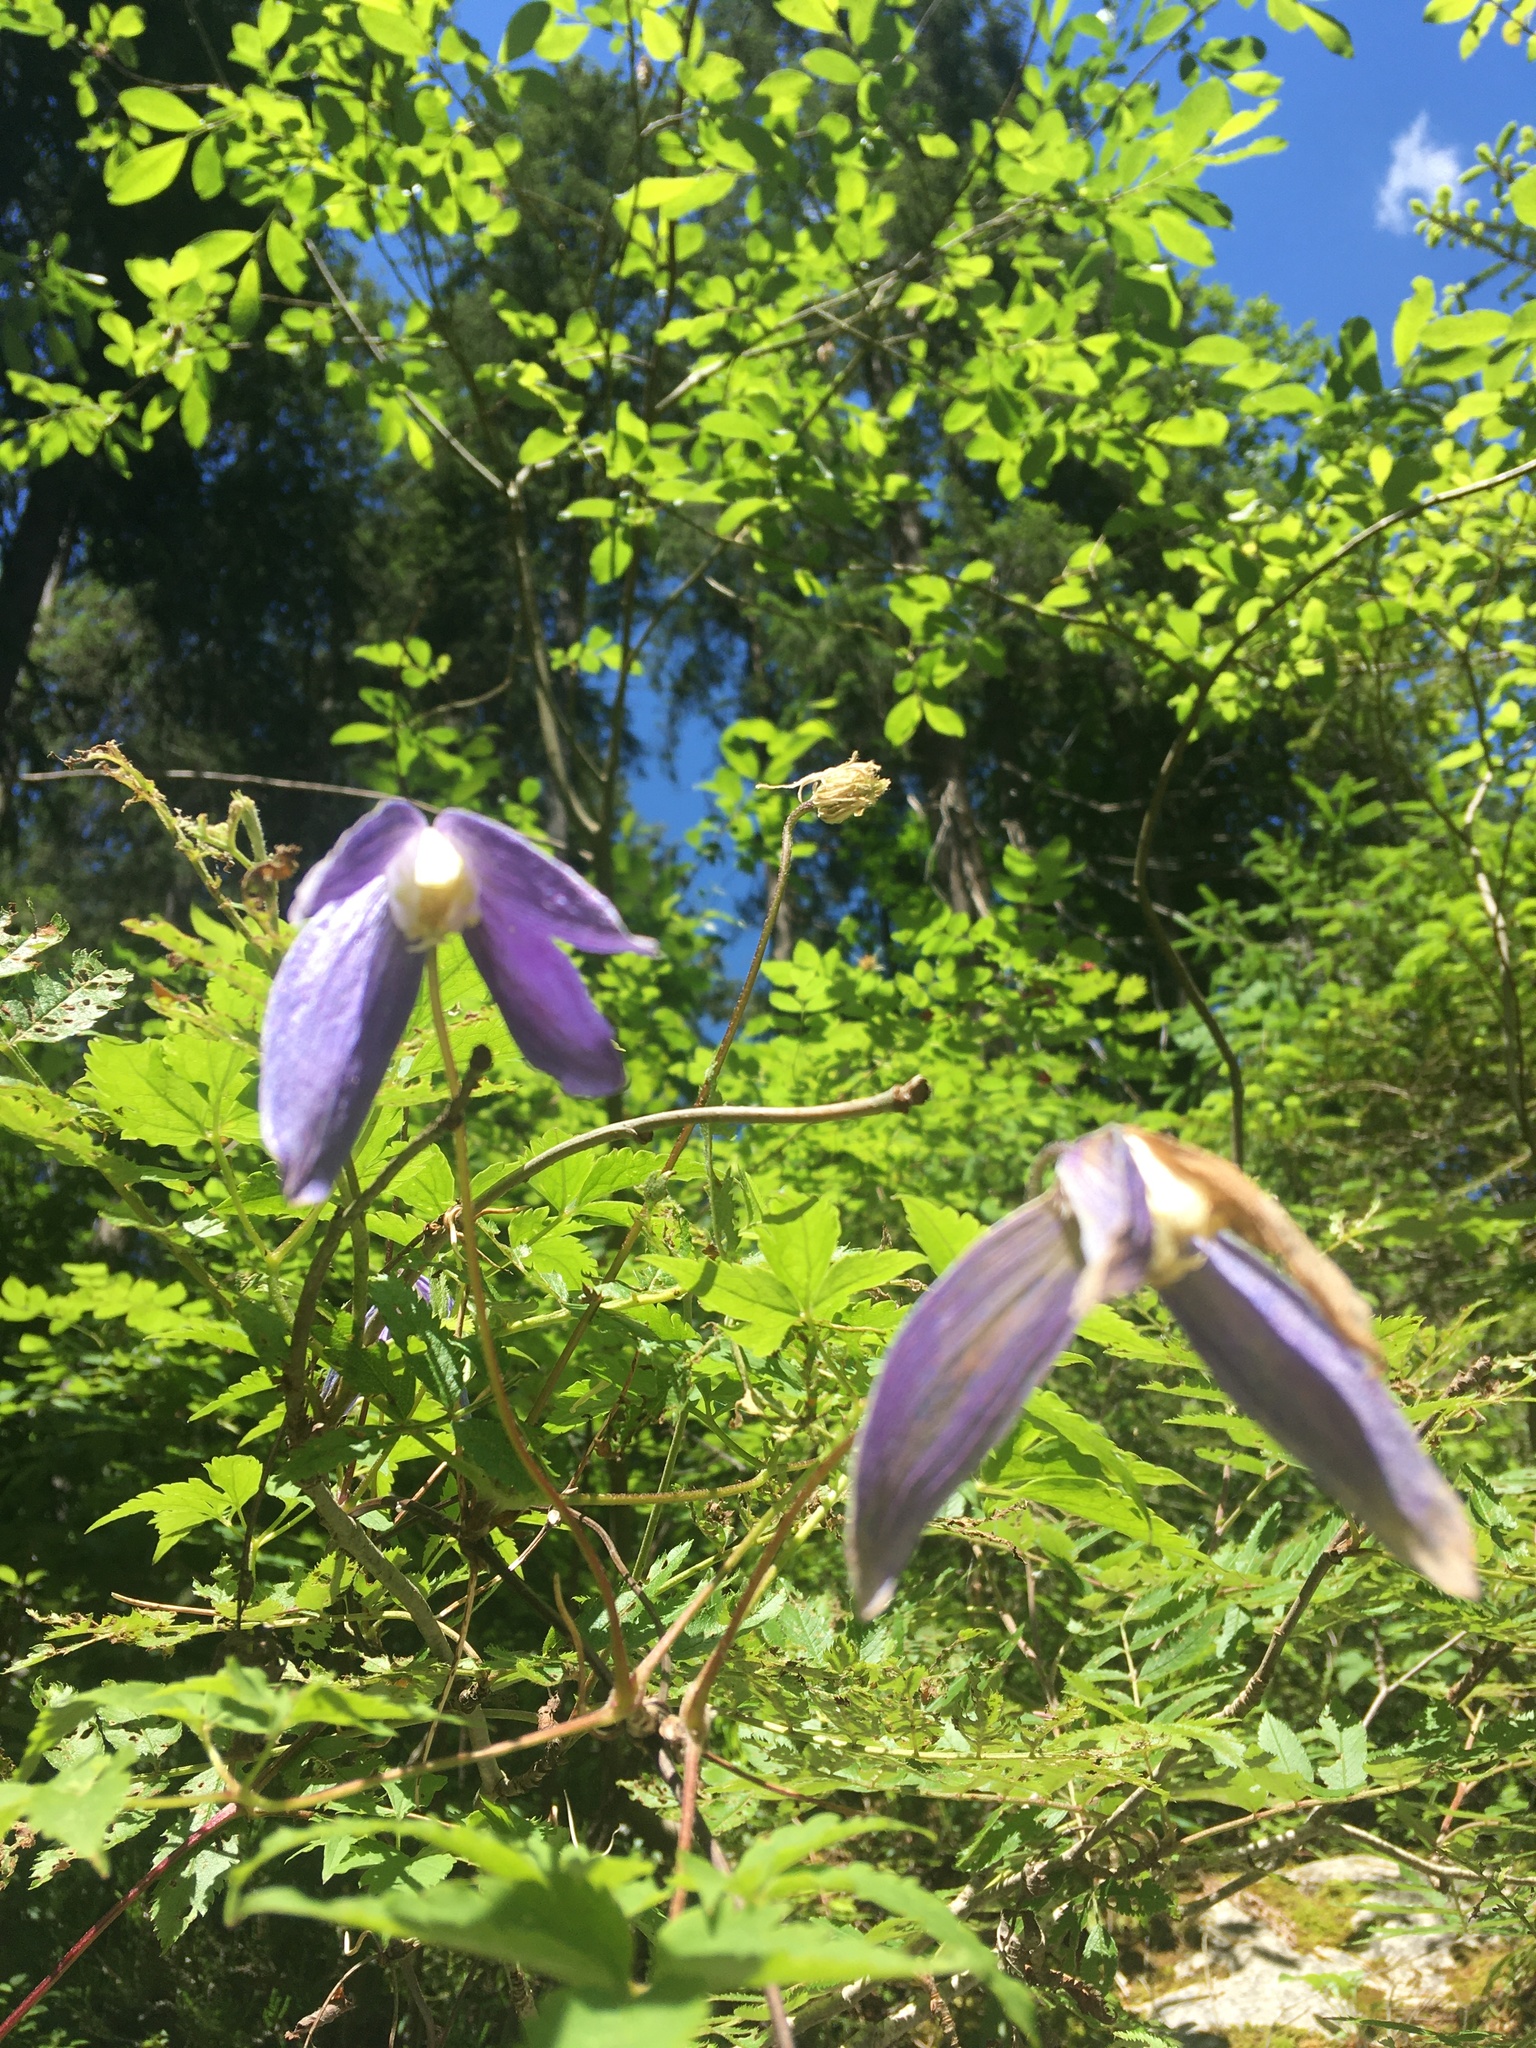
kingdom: Plantae
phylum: Tracheophyta
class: Magnoliopsida
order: Ranunculales
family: Ranunculaceae
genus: Clematis
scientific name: Clematis alpina
